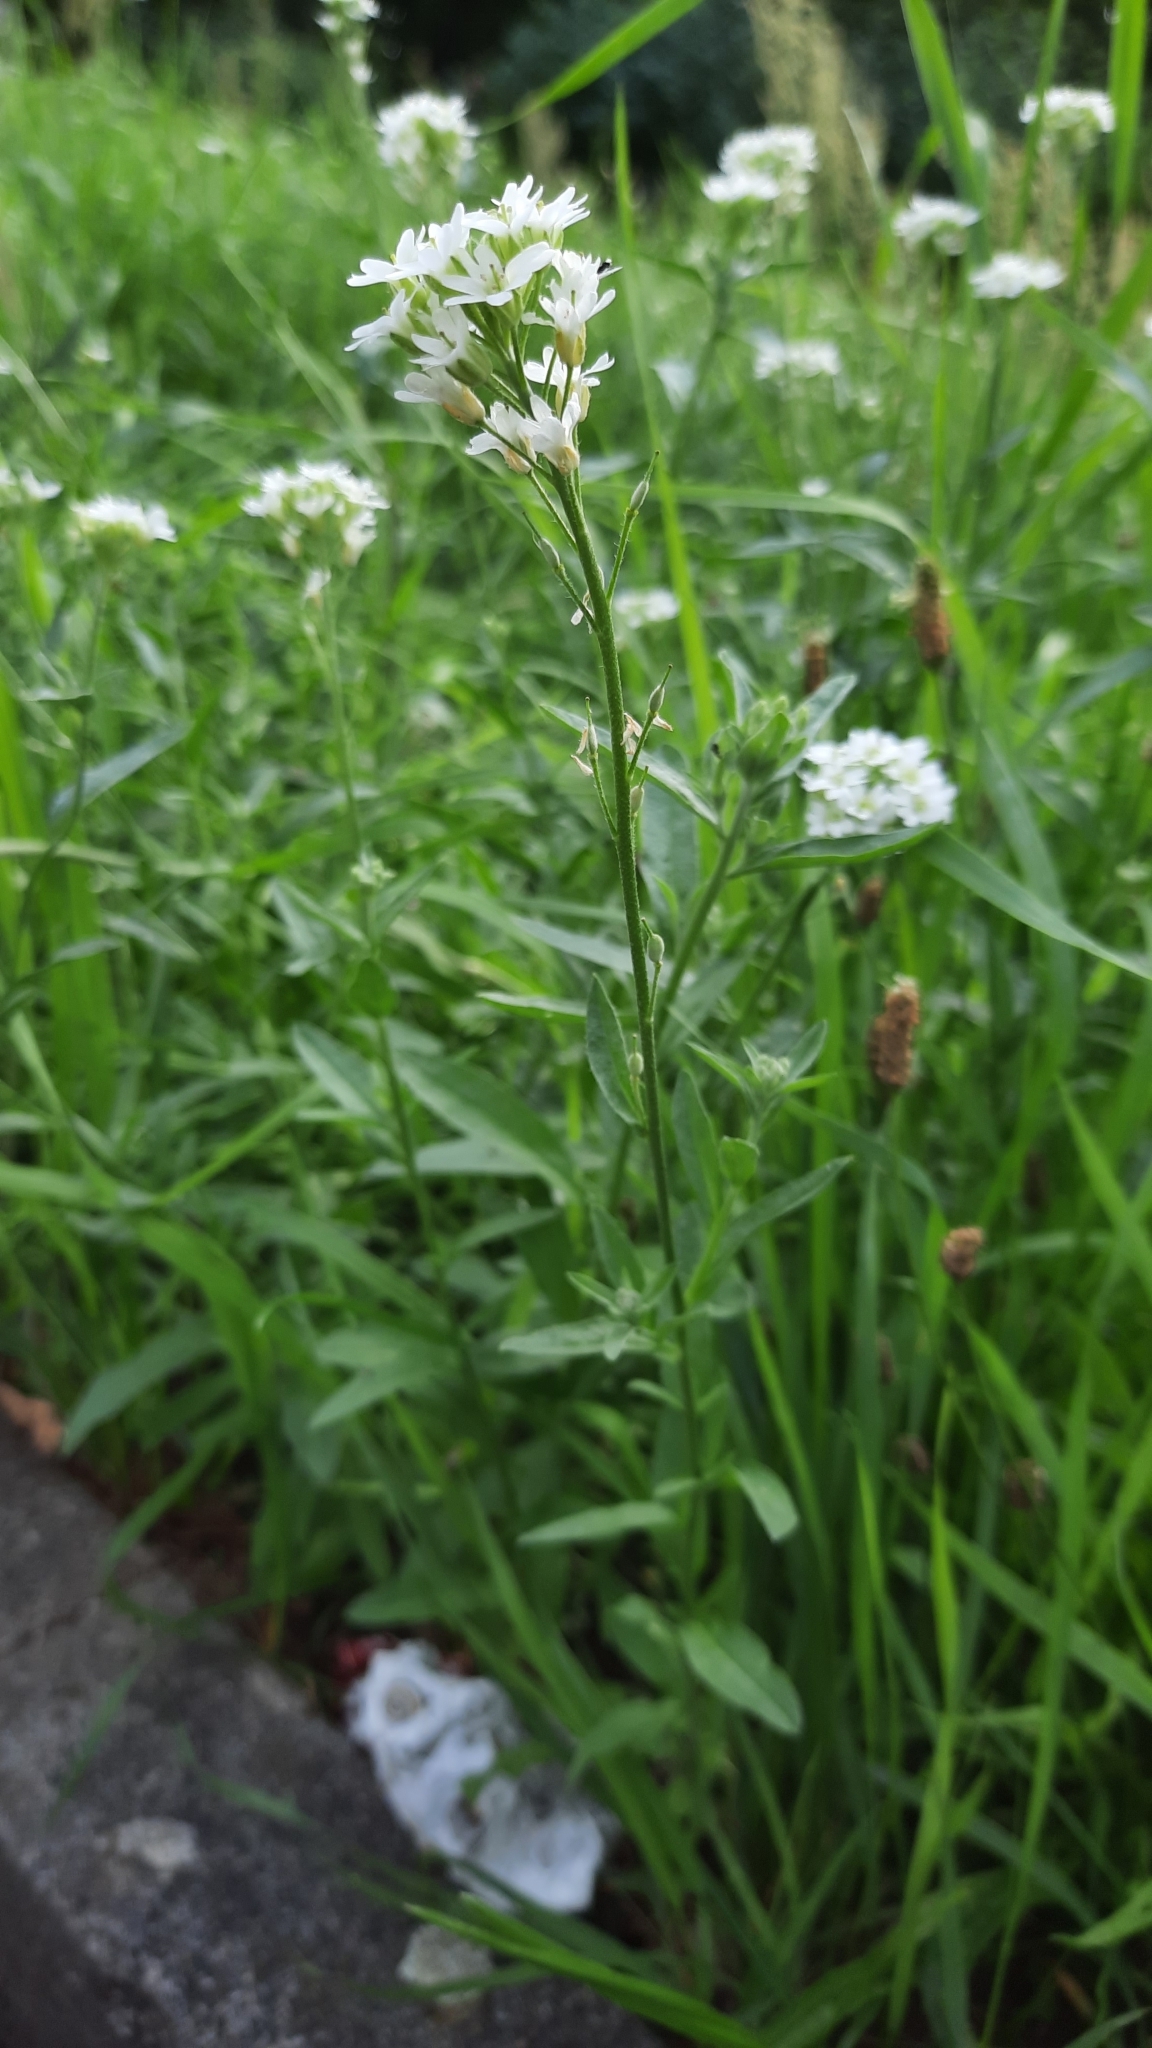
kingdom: Plantae
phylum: Tracheophyta
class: Magnoliopsida
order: Brassicales
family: Brassicaceae
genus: Berteroa
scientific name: Berteroa incana
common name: Hoary alison
